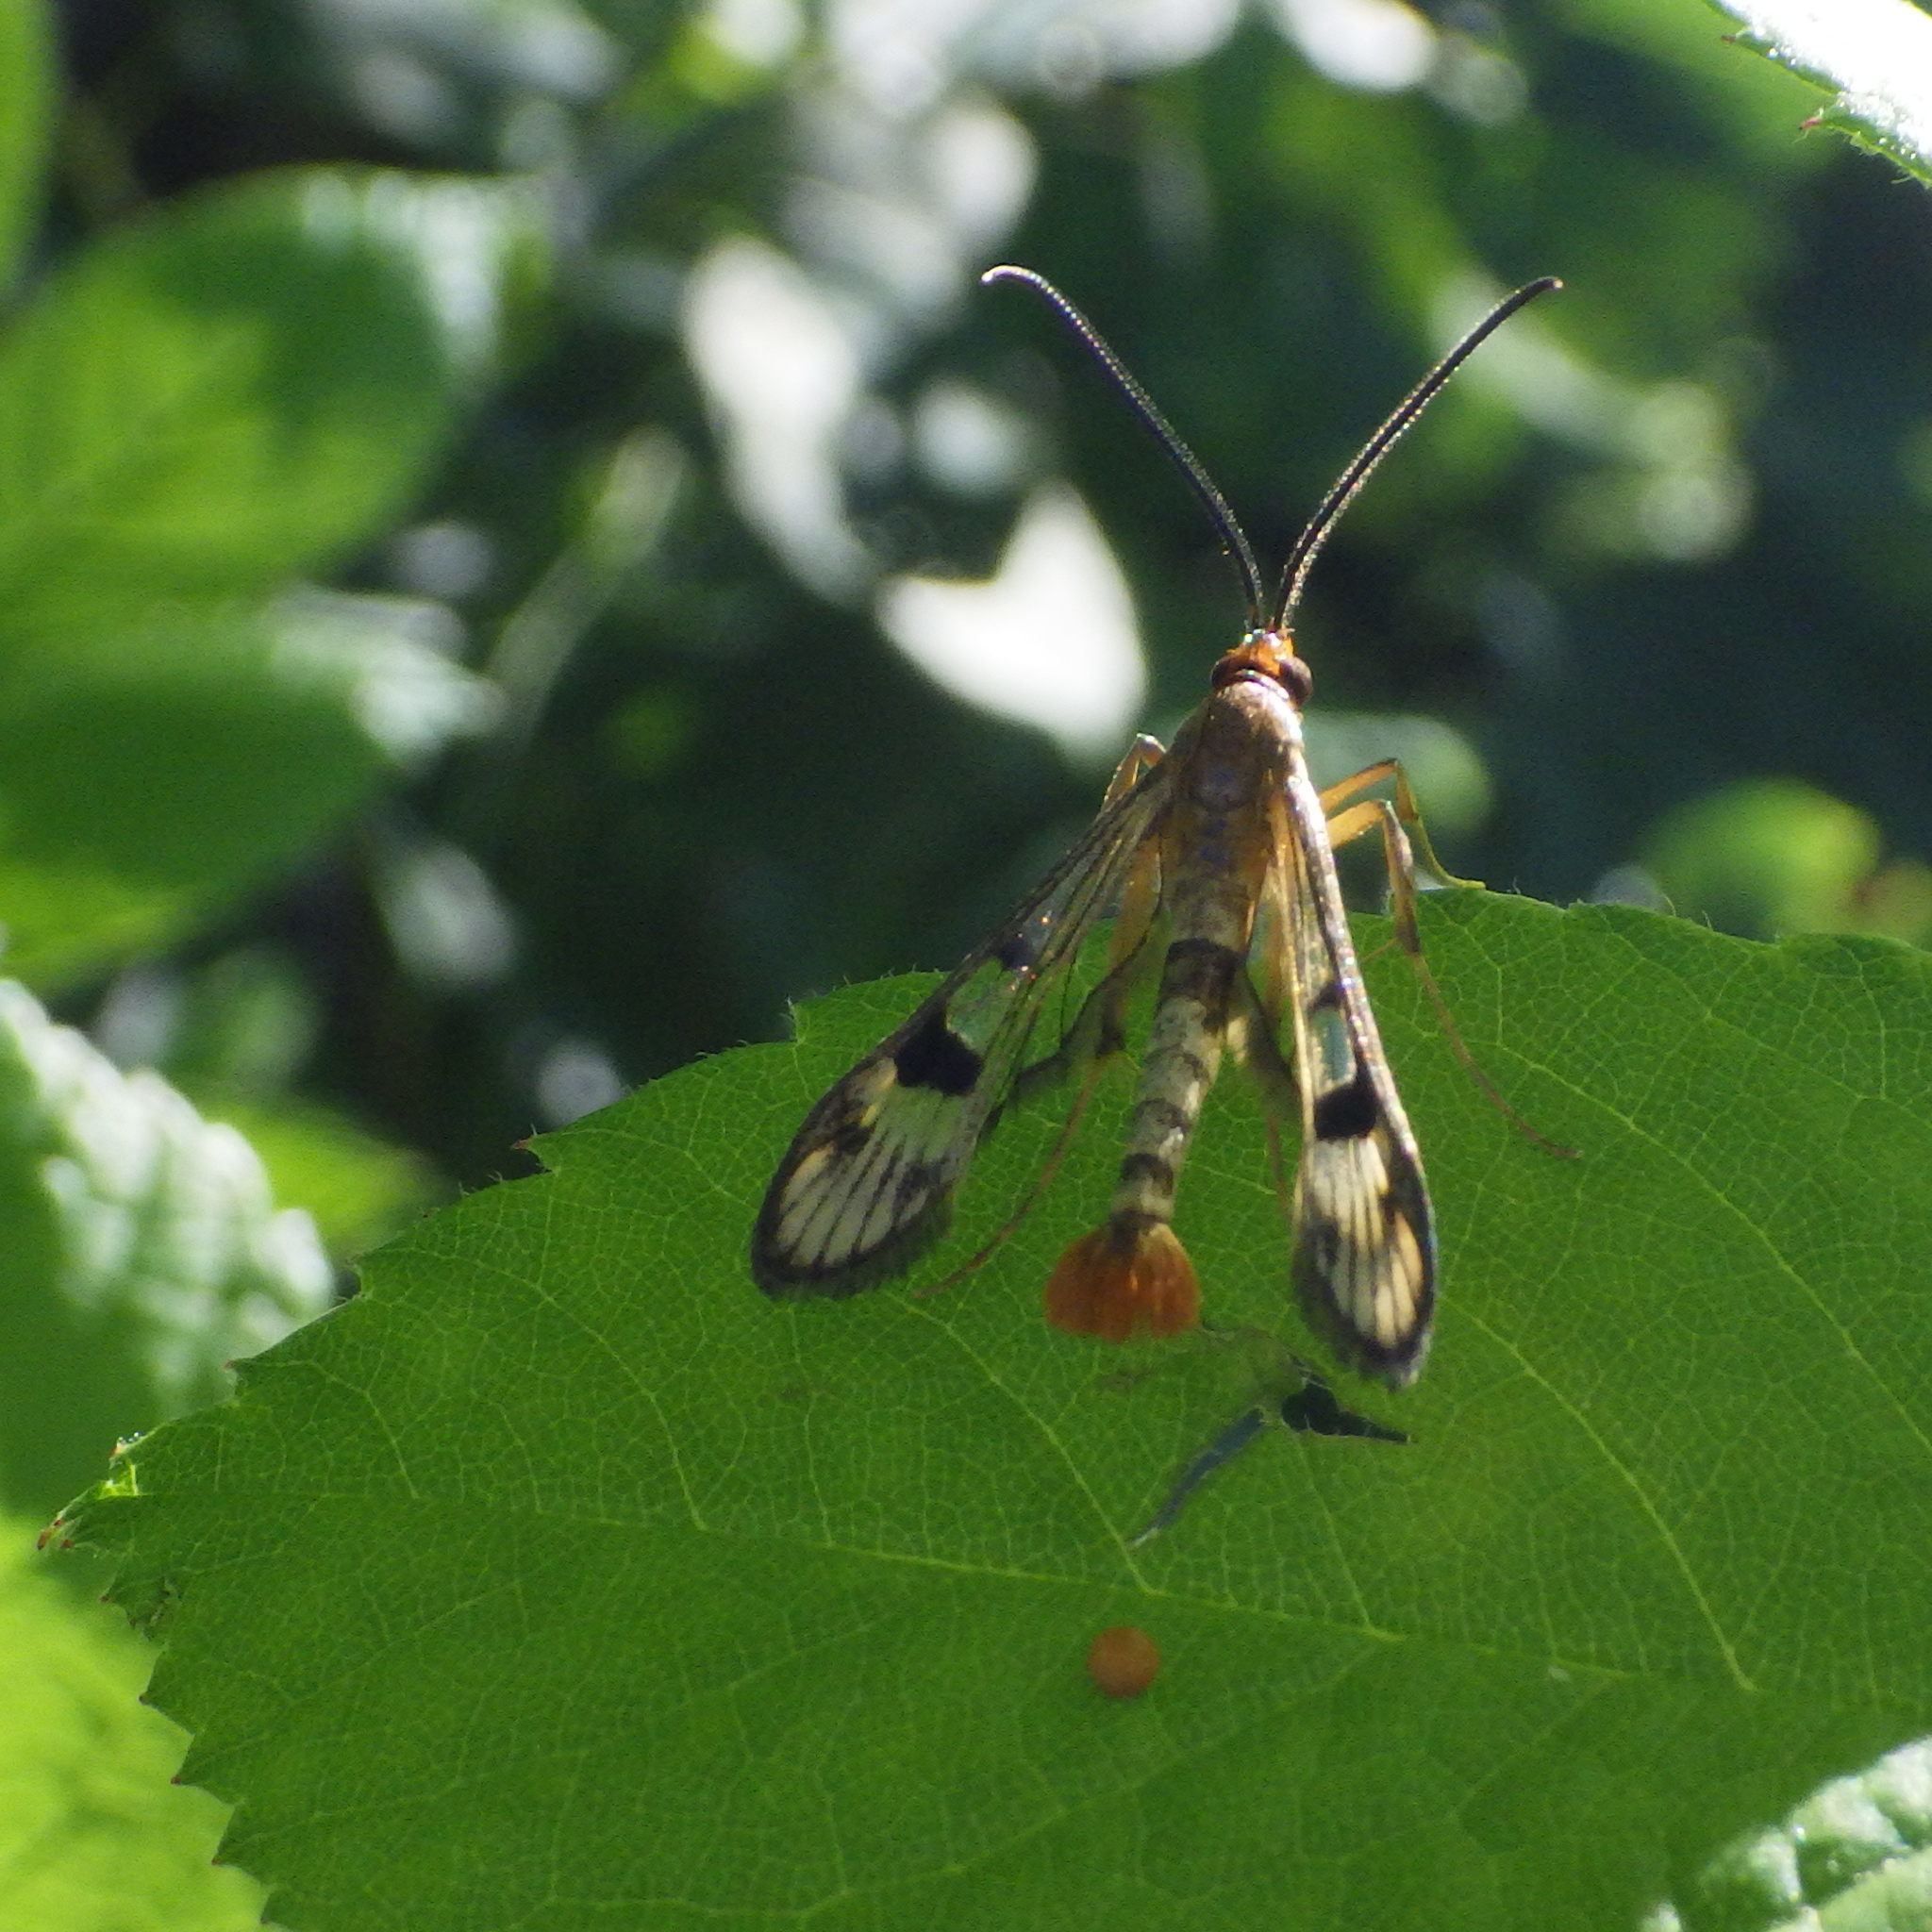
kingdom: Animalia
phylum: Arthropoda
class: Insecta
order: Lepidoptera
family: Sesiidae
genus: Synanthedon
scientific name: Synanthedon acerni
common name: Maple callus borer moth
